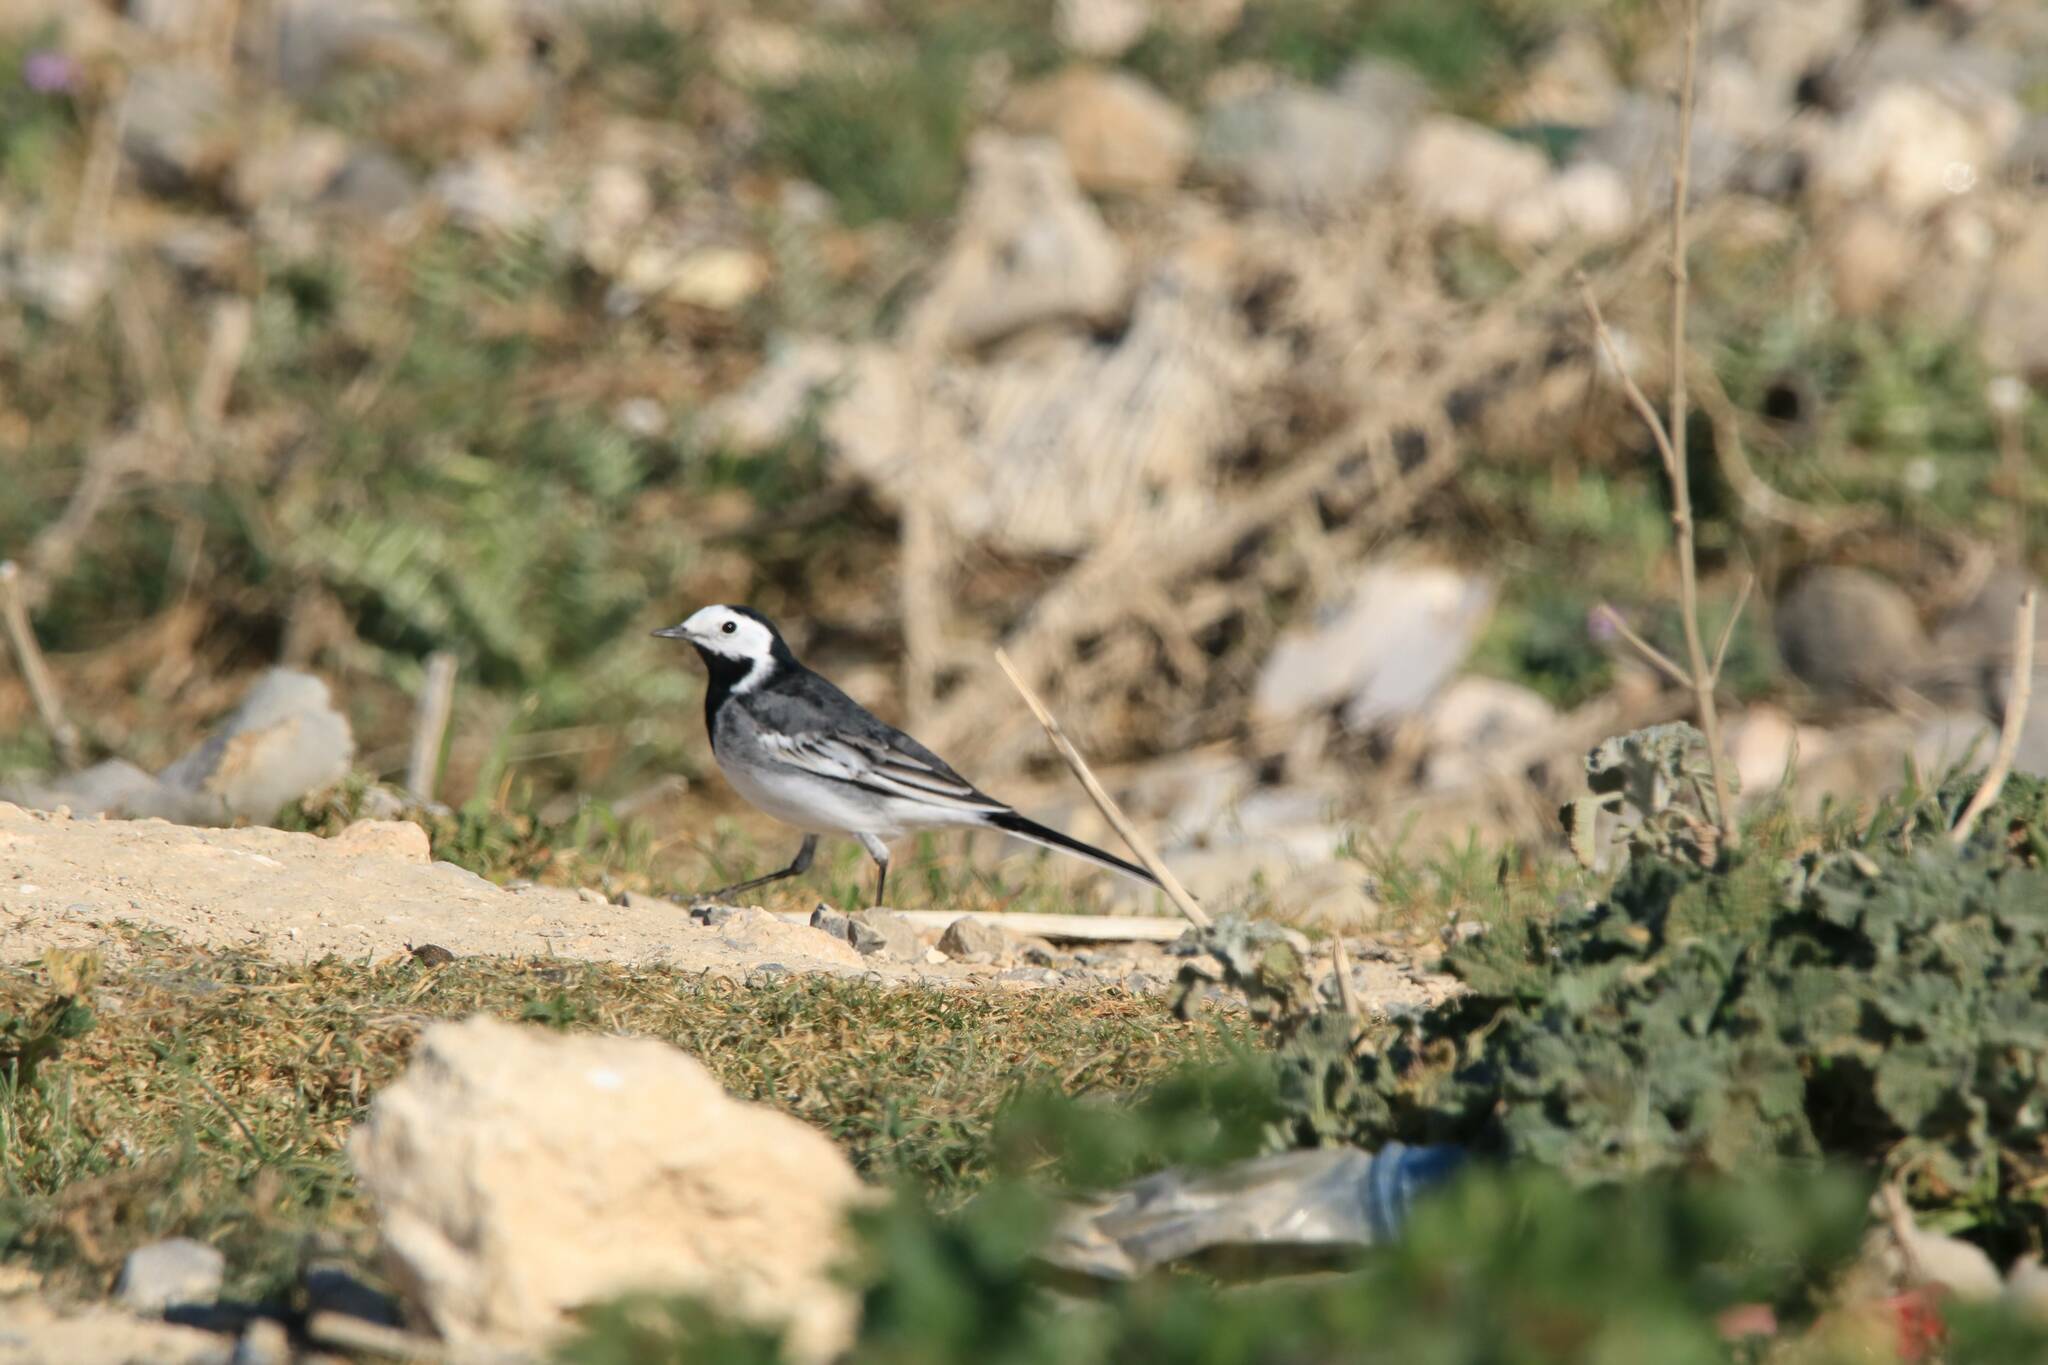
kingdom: Animalia
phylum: Chordata
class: Aves
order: Passeriformes
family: Motacillidae
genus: Motacilla
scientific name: Motacilla alba
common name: White wagtail
